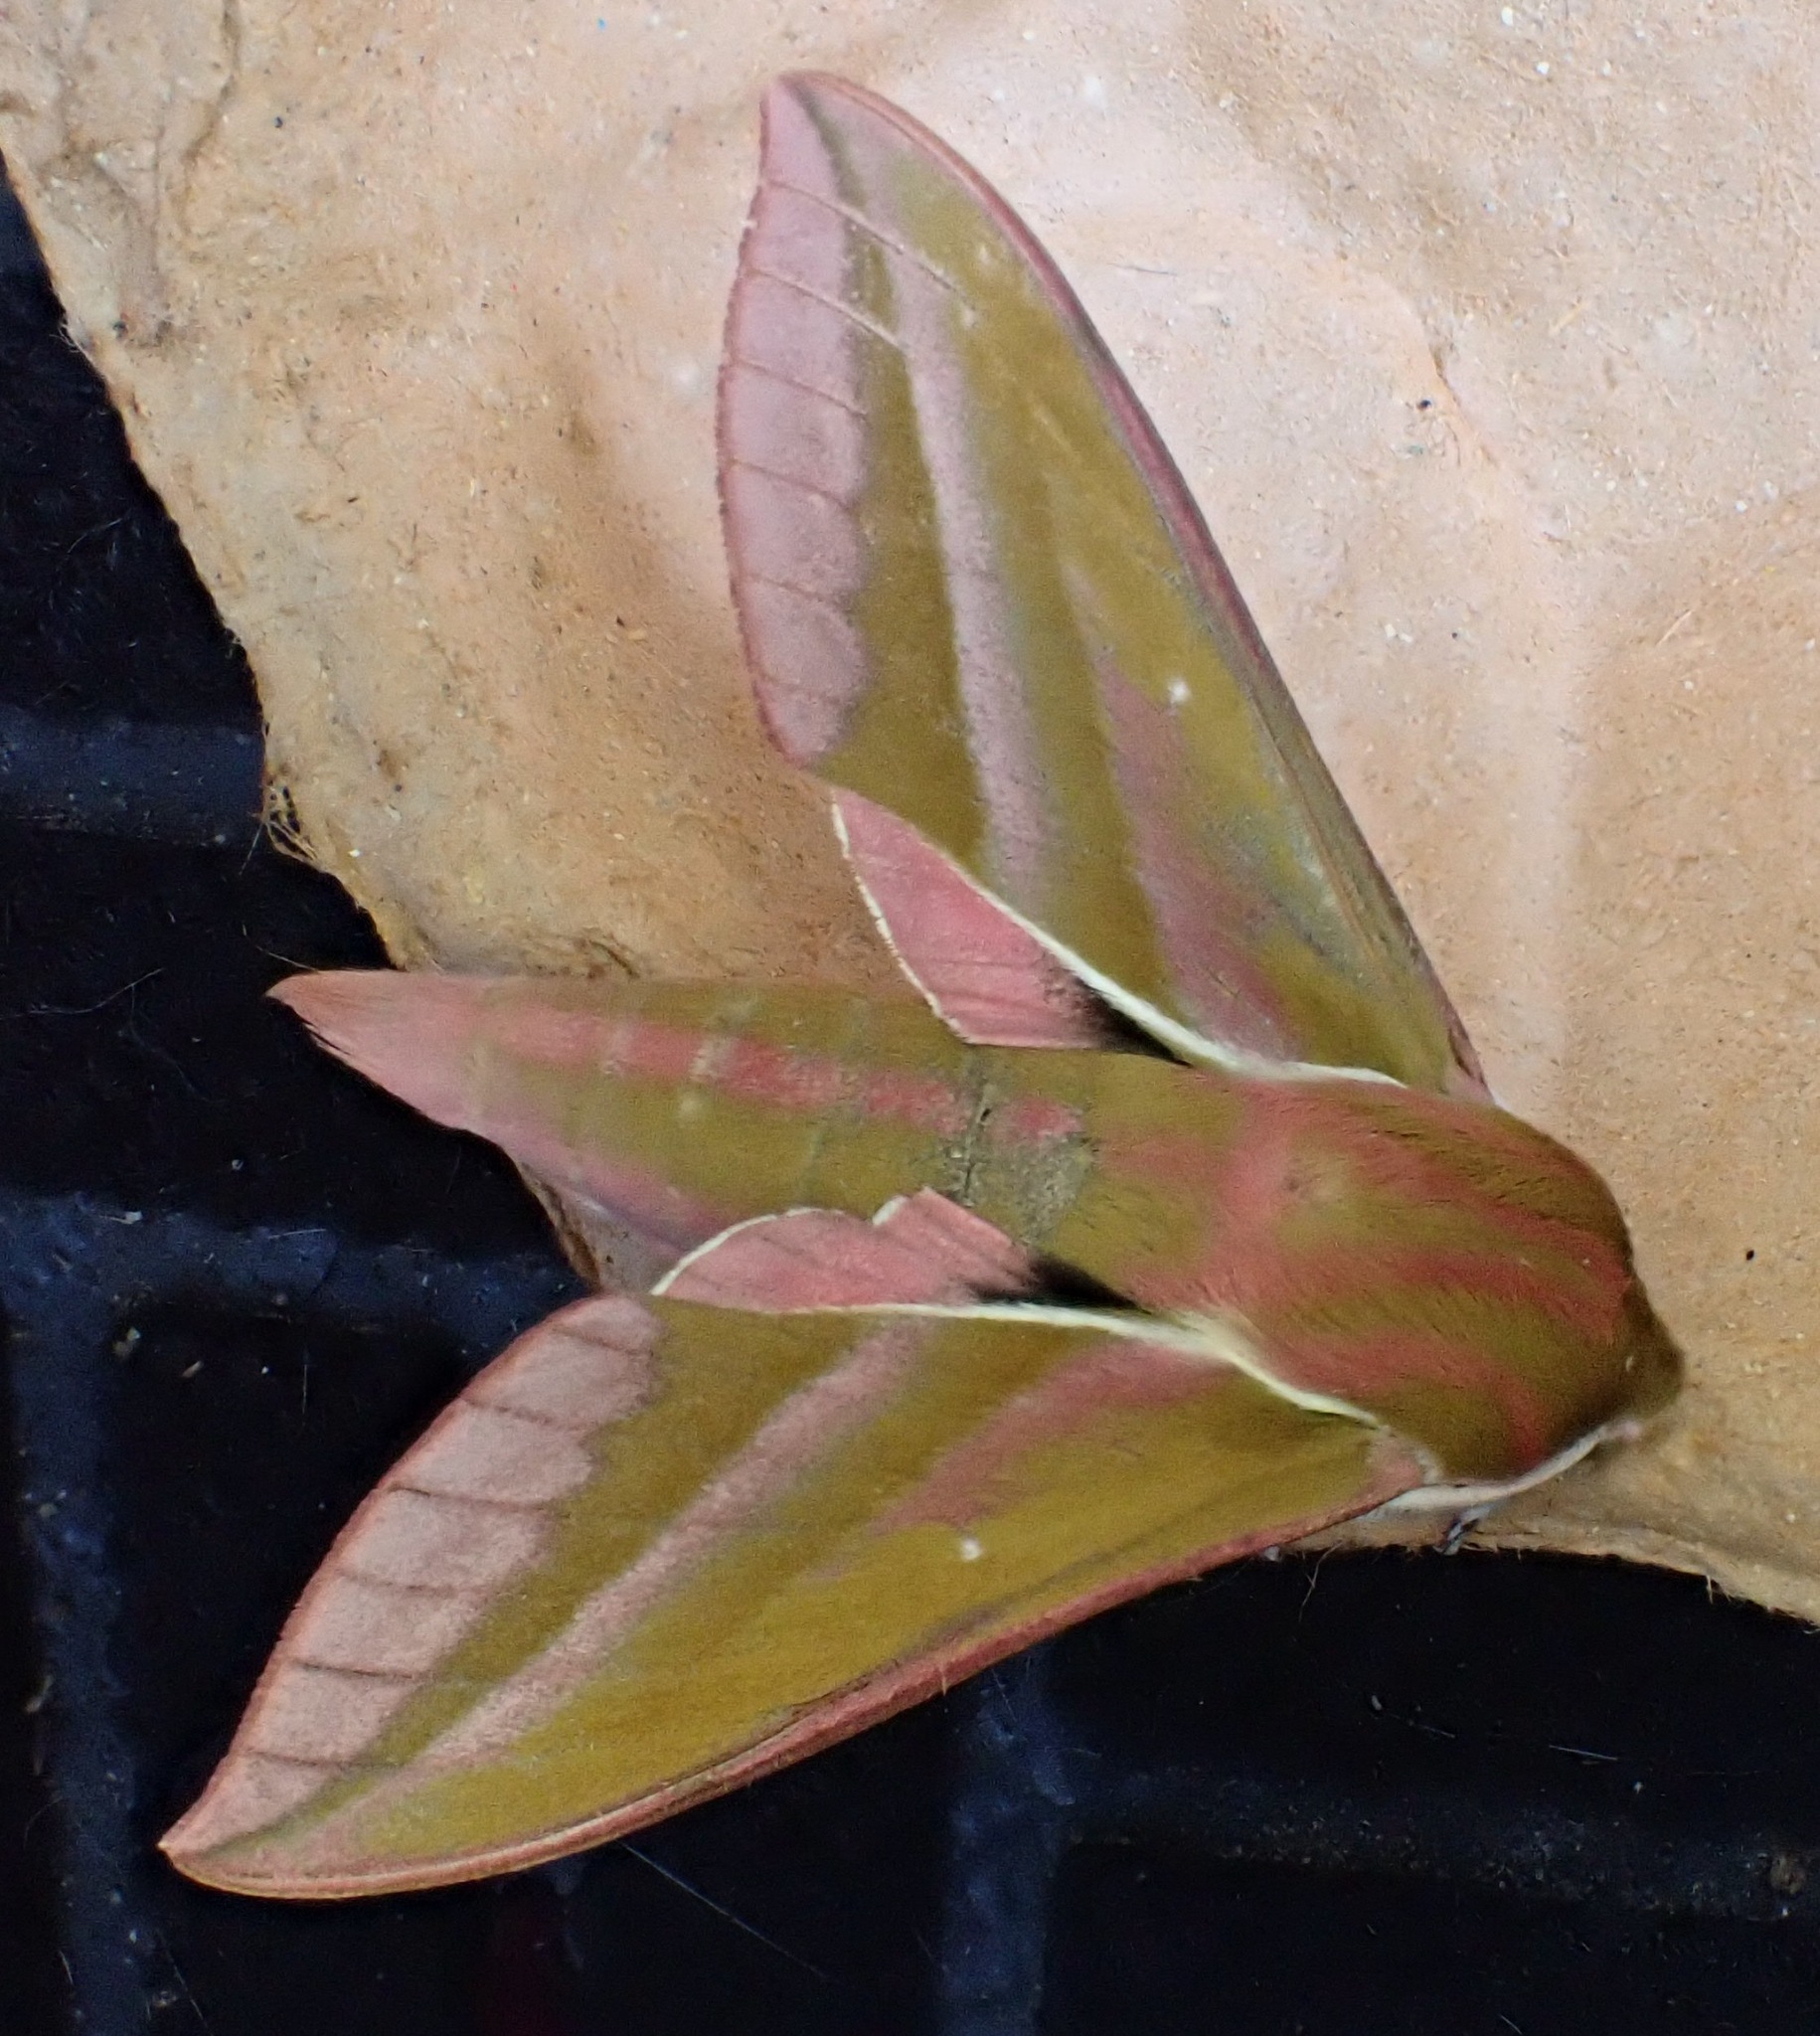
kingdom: Animalia
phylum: Arthropoda
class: Insecta
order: Lepidoptera
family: Sphingidae
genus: Deilephila
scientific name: Deilephila elpenor
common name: Elephant hawk-moth
